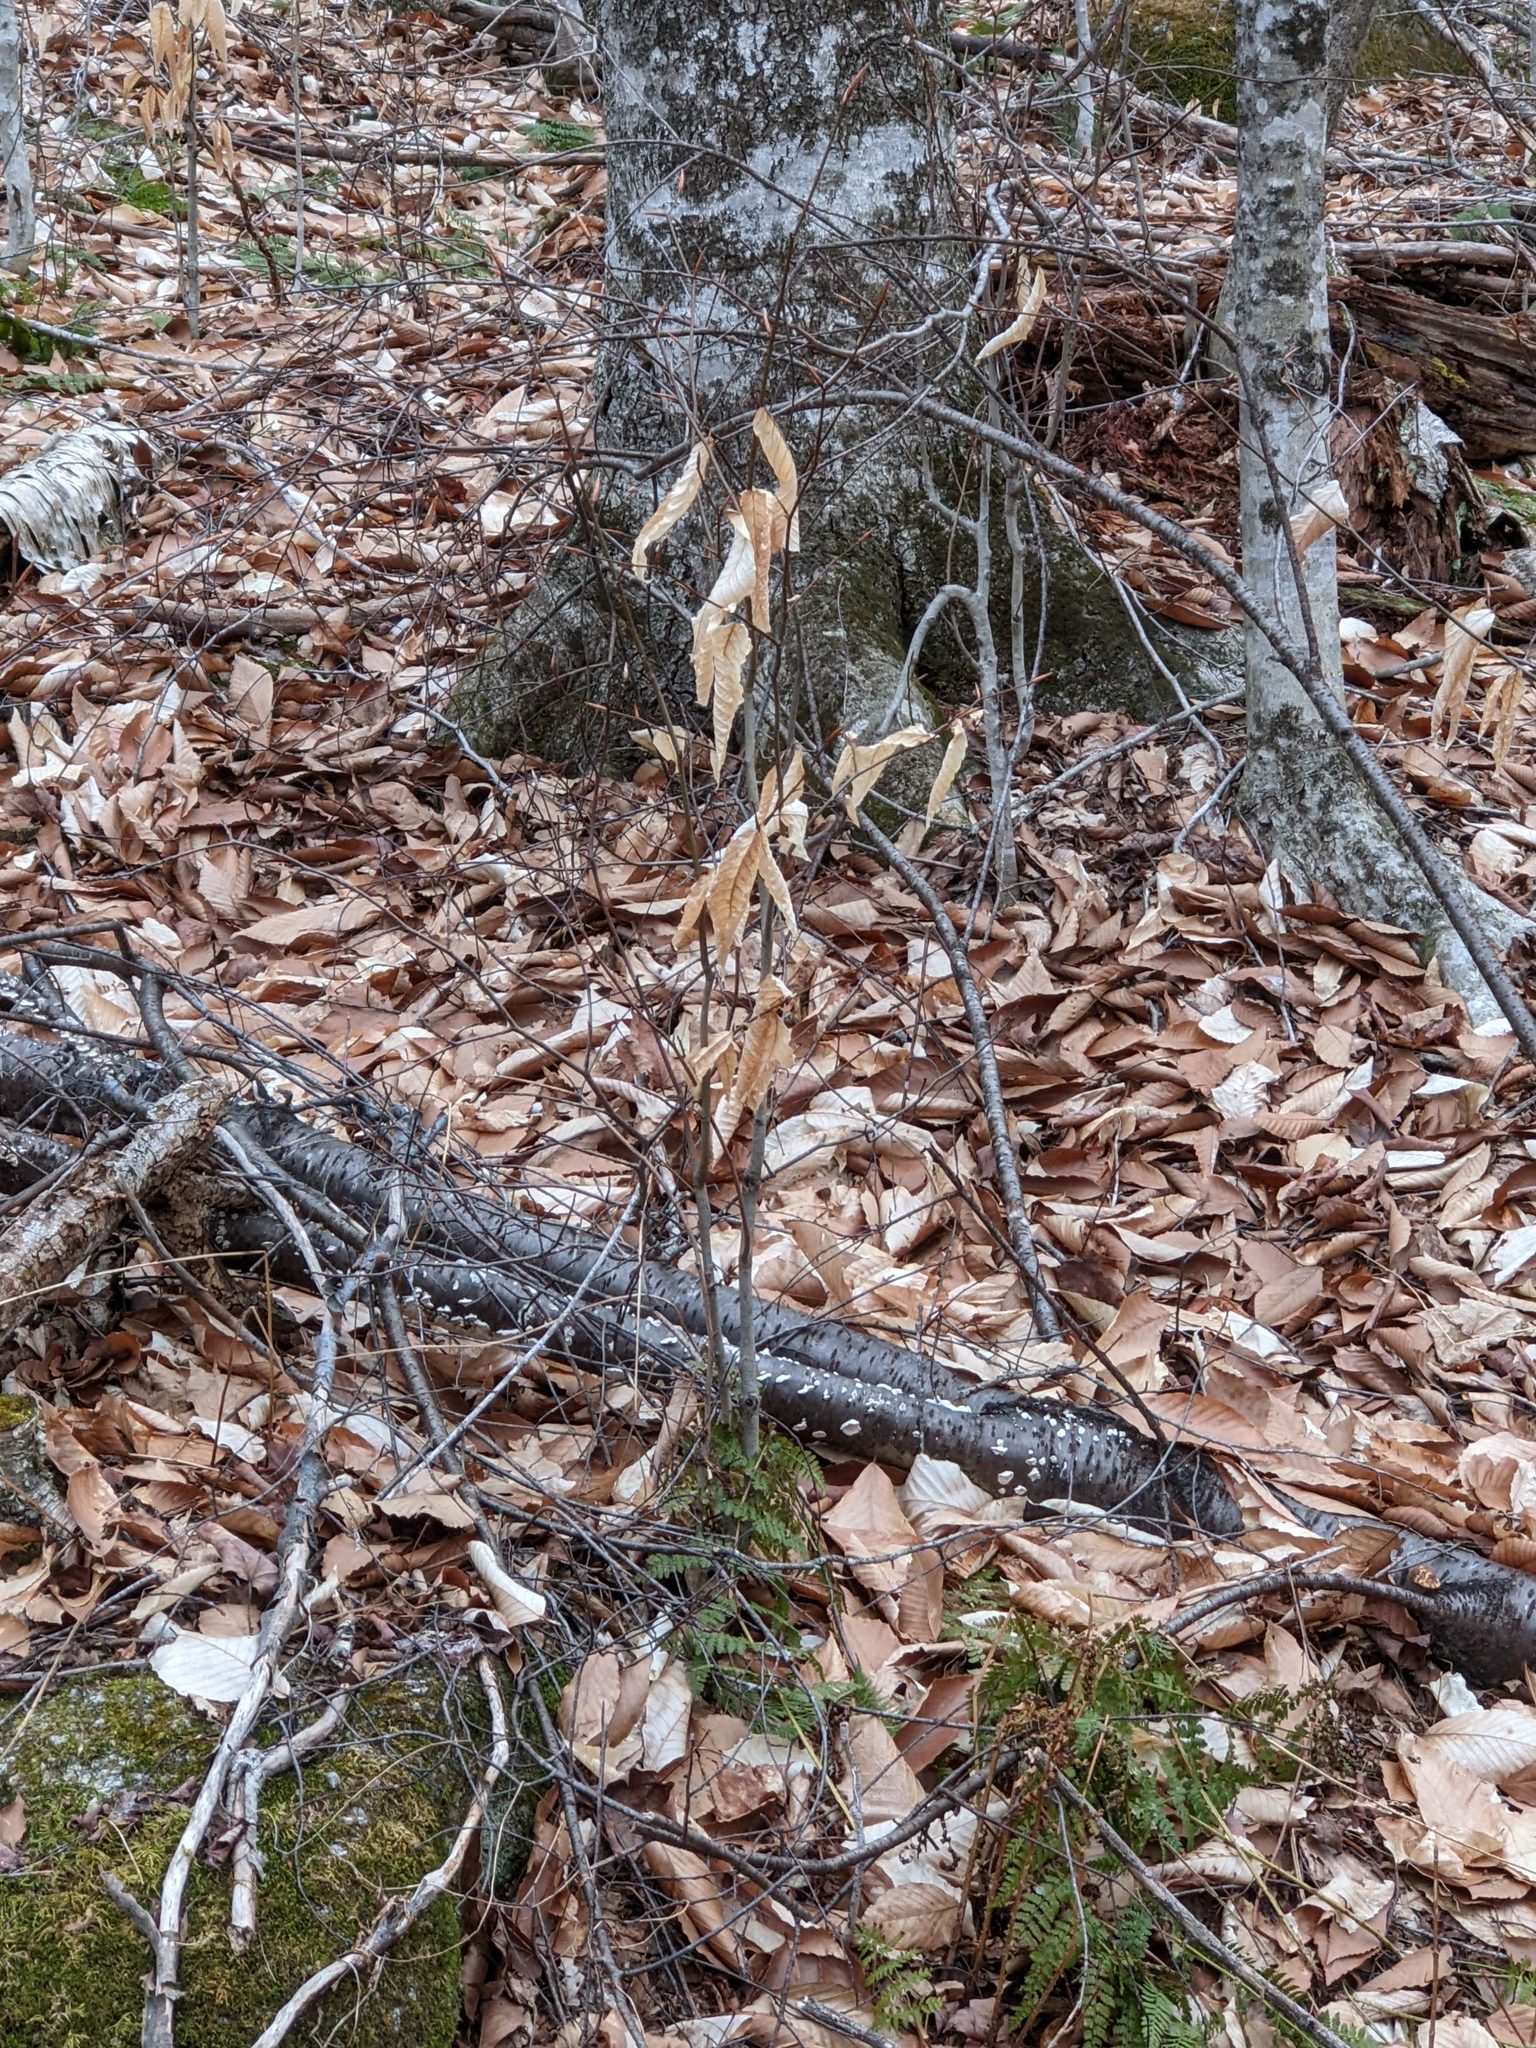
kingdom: Plantae
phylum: Tracheophyta
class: Magnoliopsida
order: Fagales
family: Fagaceae
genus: Fagus
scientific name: Fagus grandifolia
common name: American beech
